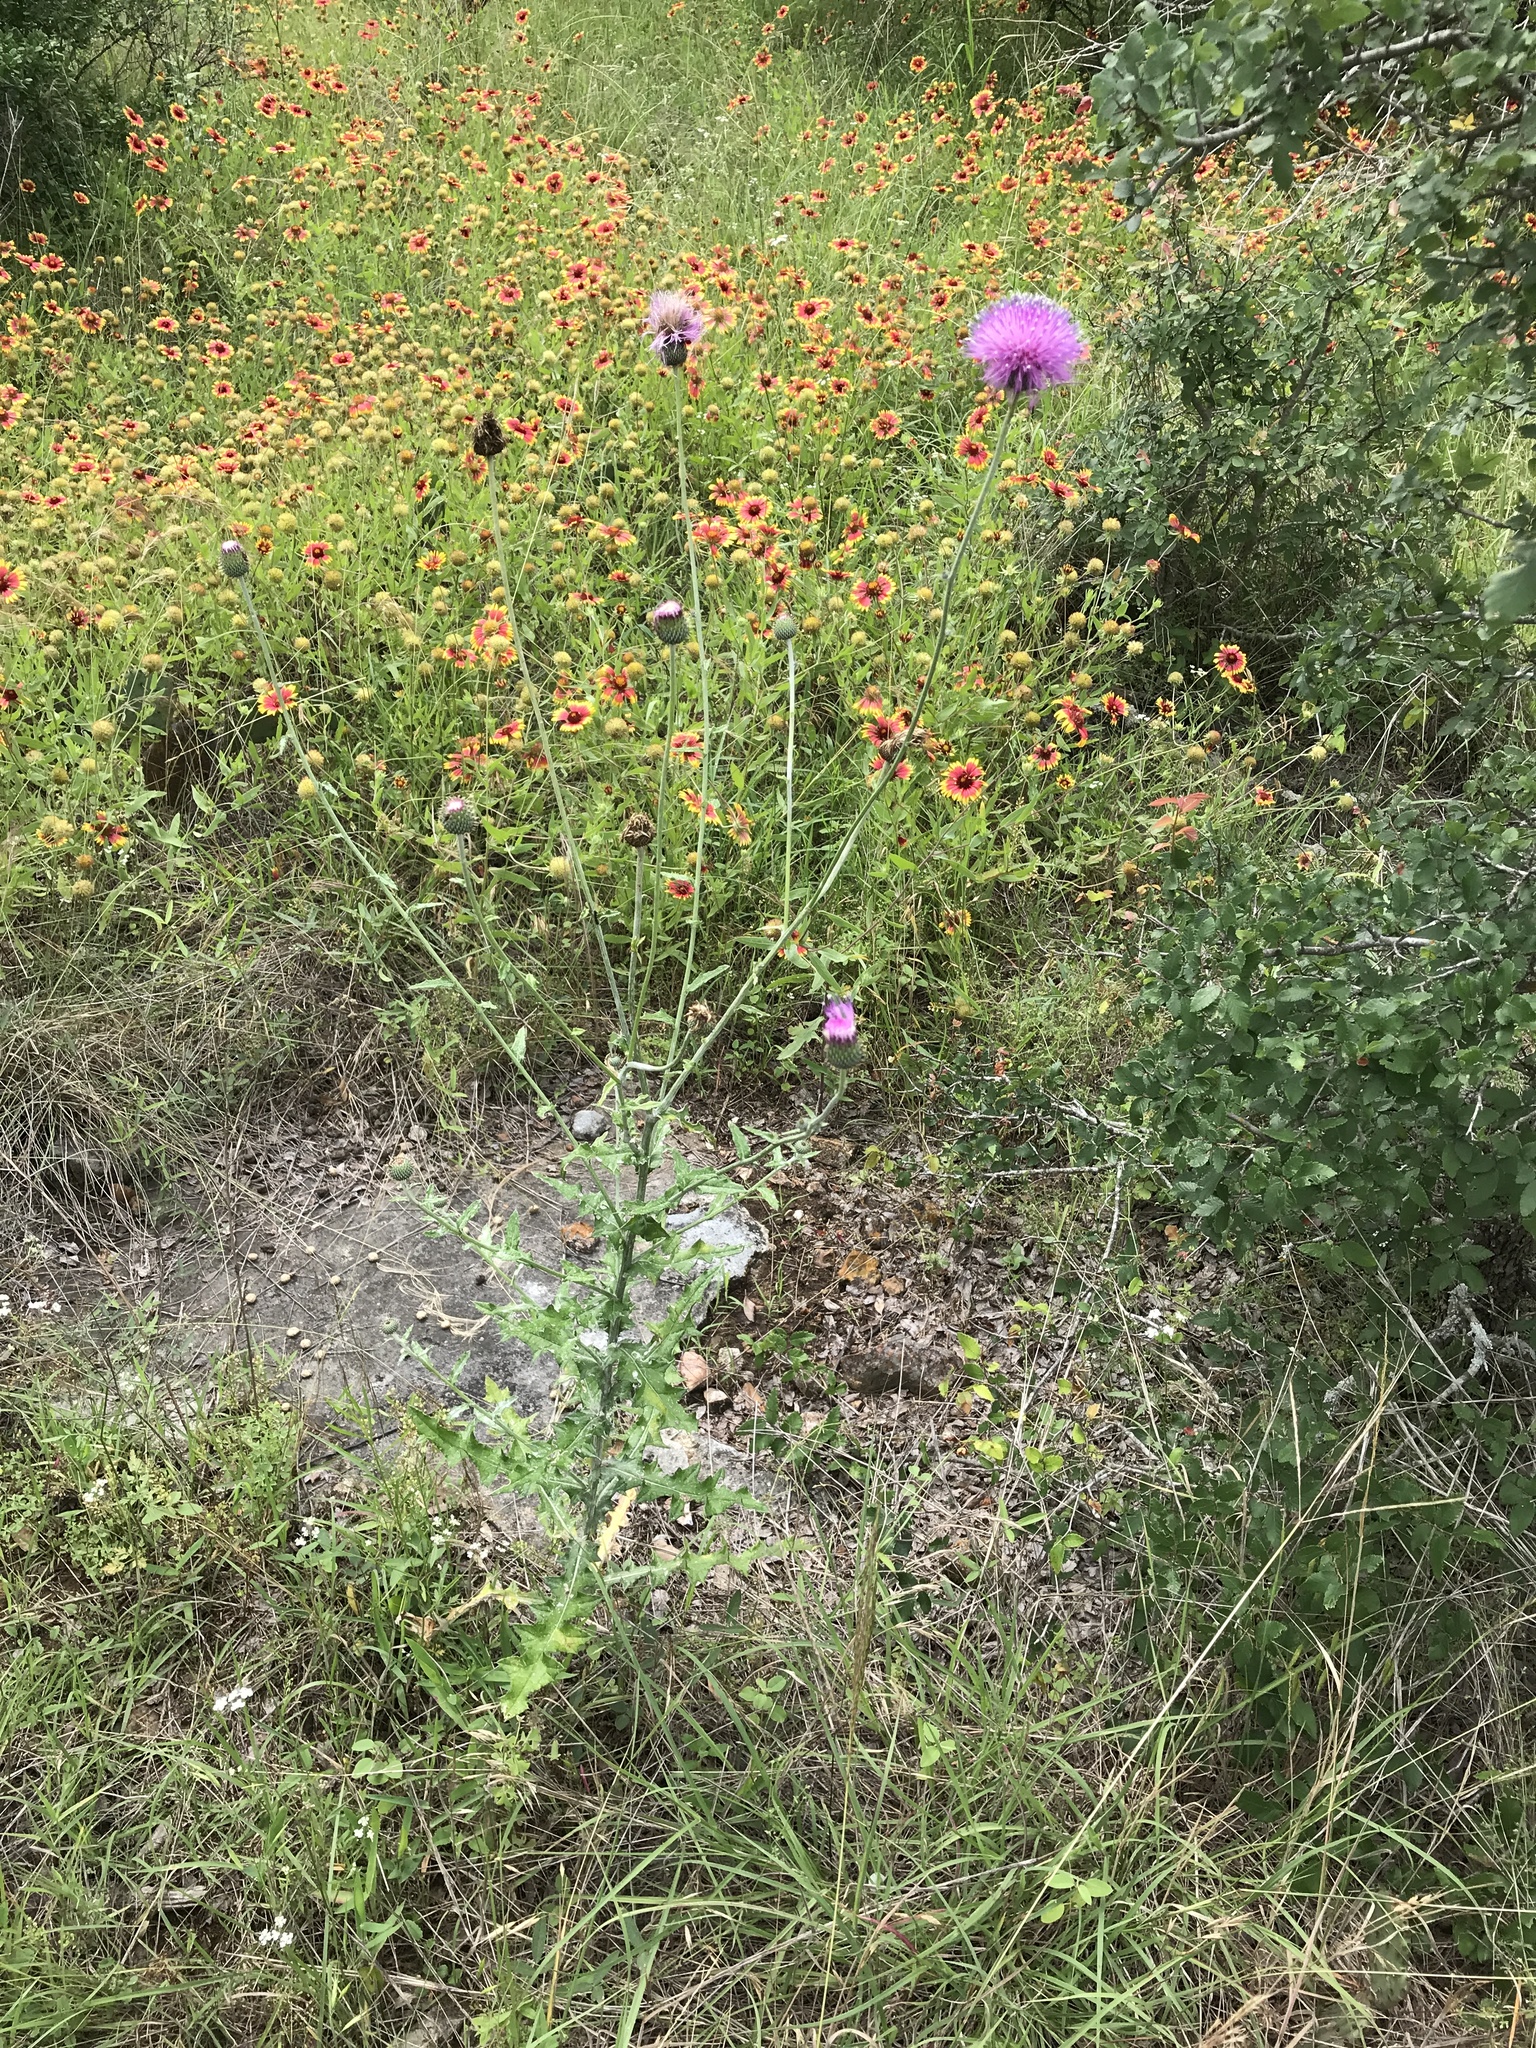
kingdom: Plantae
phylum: Tracheophyta
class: Magnoliopsida
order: Asterales
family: Asteraceae
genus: Cirsium
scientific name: Cirsium texanum
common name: Texas purple thistle
